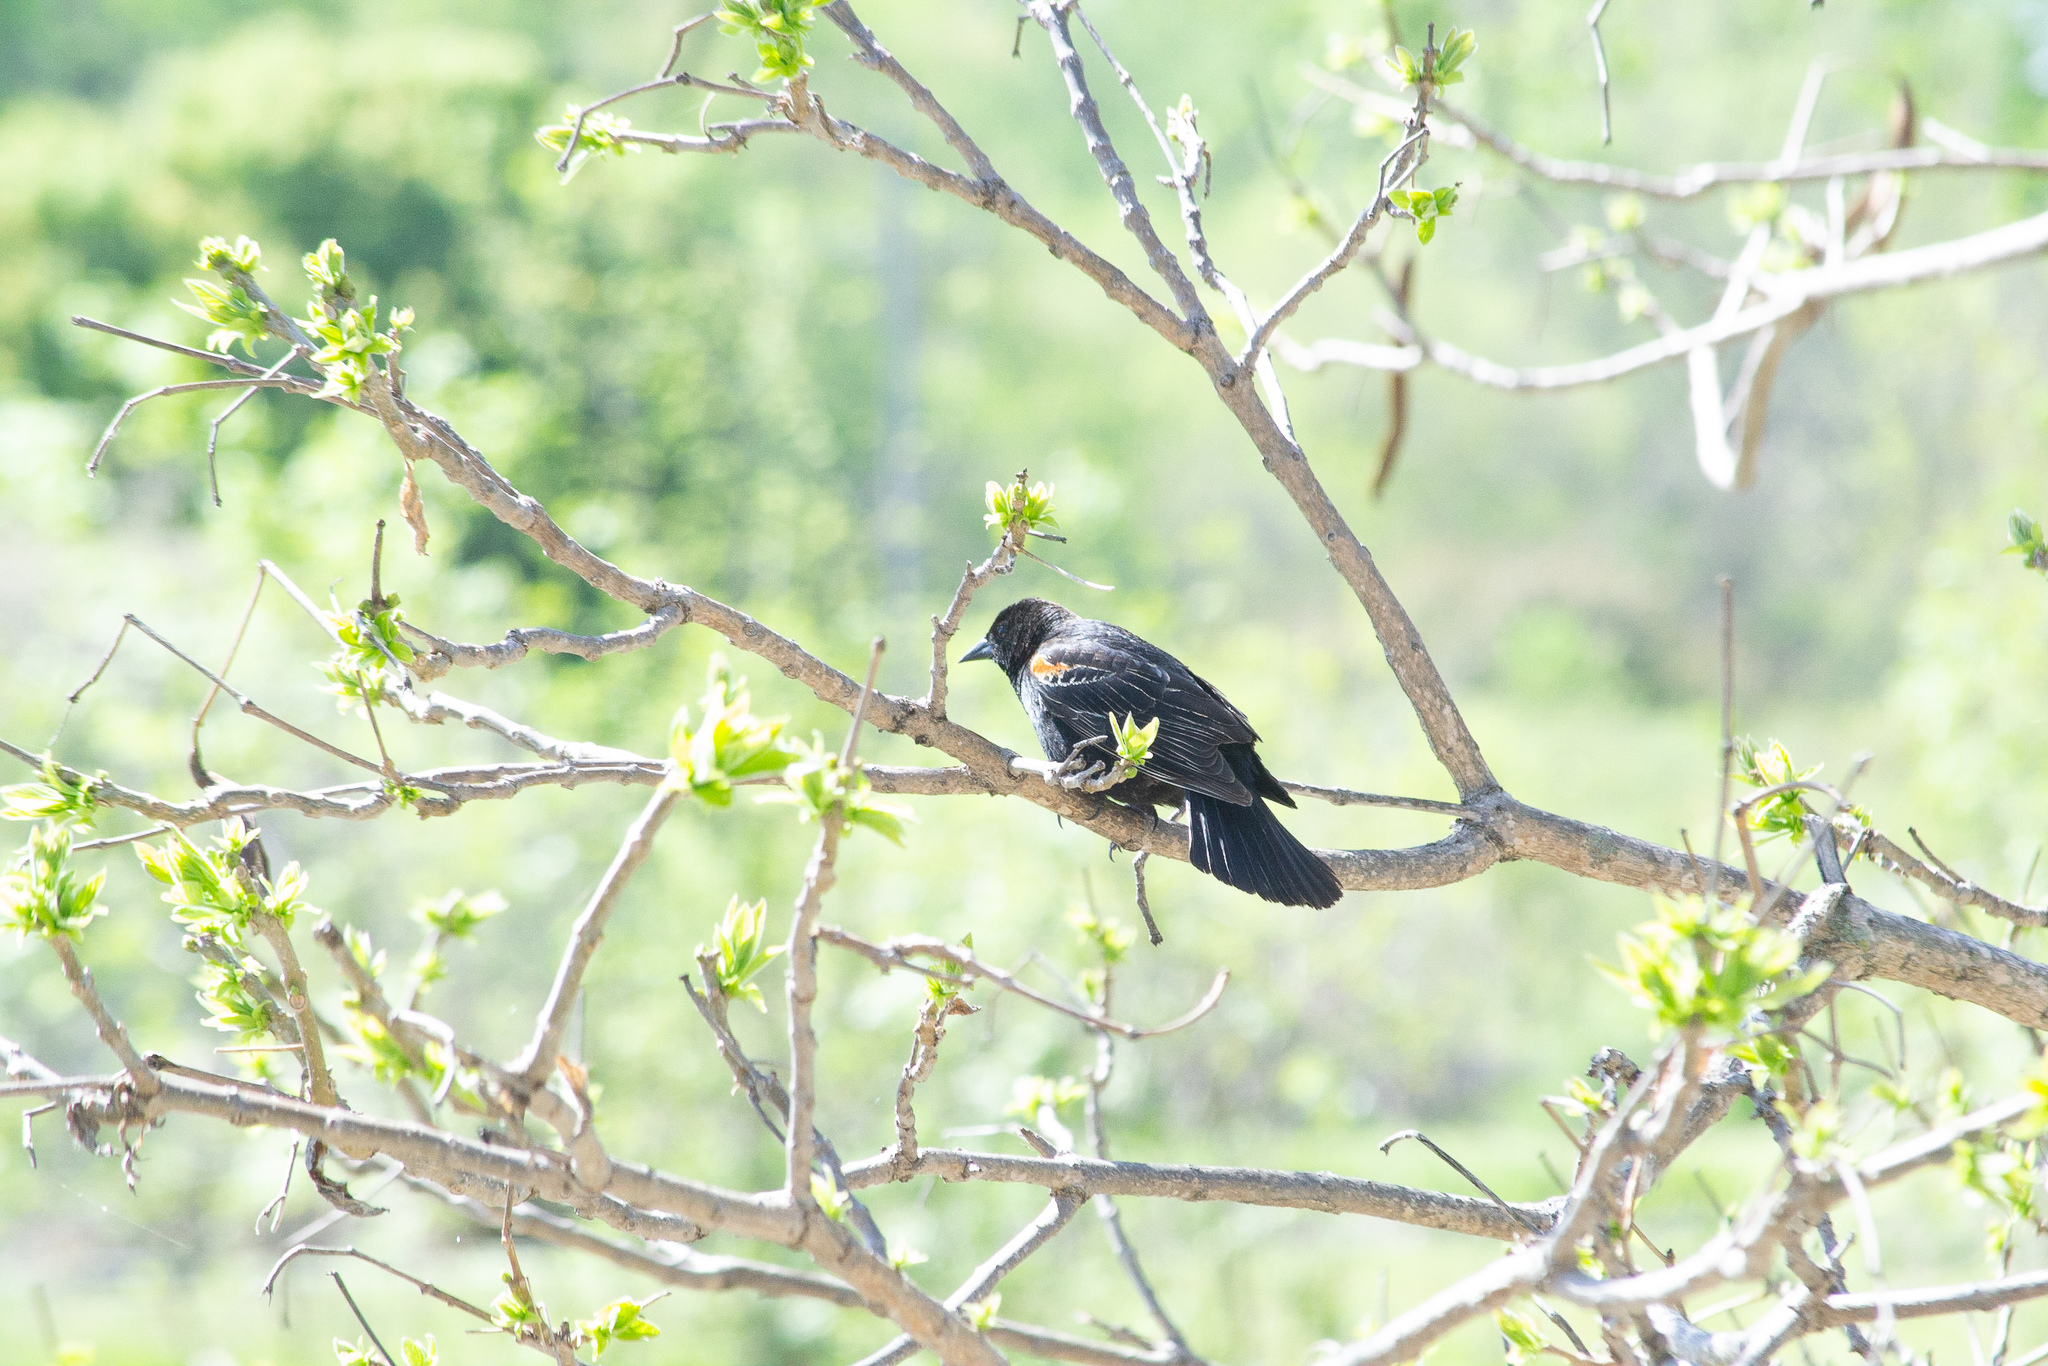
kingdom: Animalia
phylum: Chordata
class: Aves
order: Passeriformes
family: Icteridae
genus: Agelaius
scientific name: Agelaius phoeniceus
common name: Red-winged blackbird
